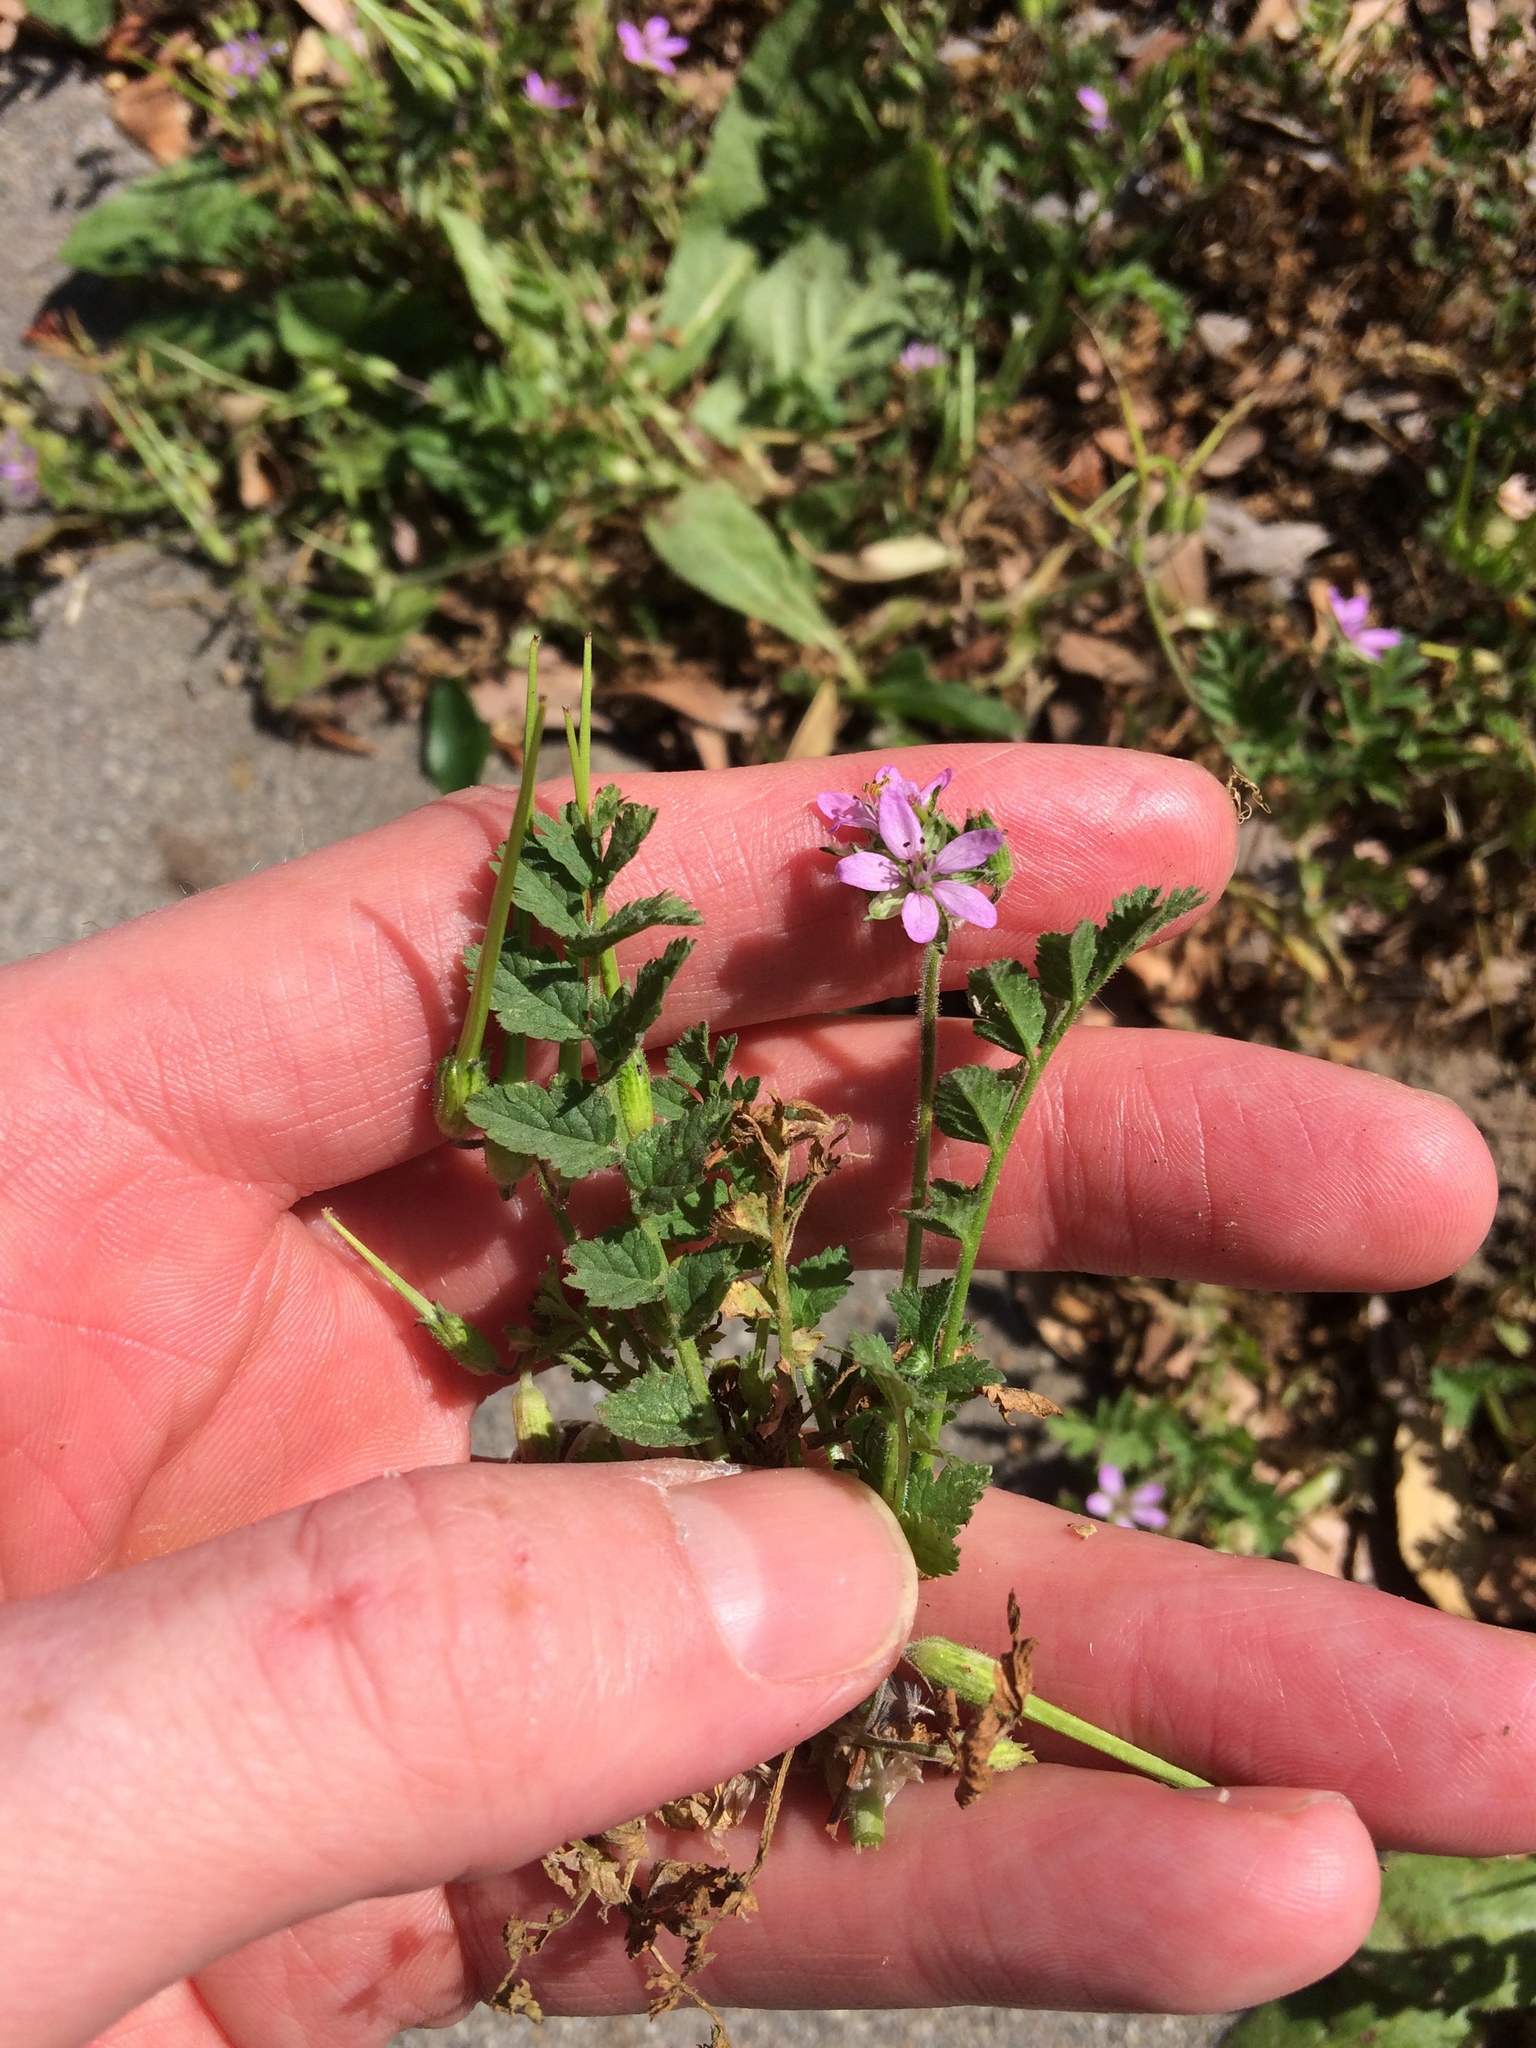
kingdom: Plantae
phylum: Tracheophyta
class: Magnoliopsida
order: Geraniales
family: Geraniaceae
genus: Erodium
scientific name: Erodium moschatum
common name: Musk stork's-bill
